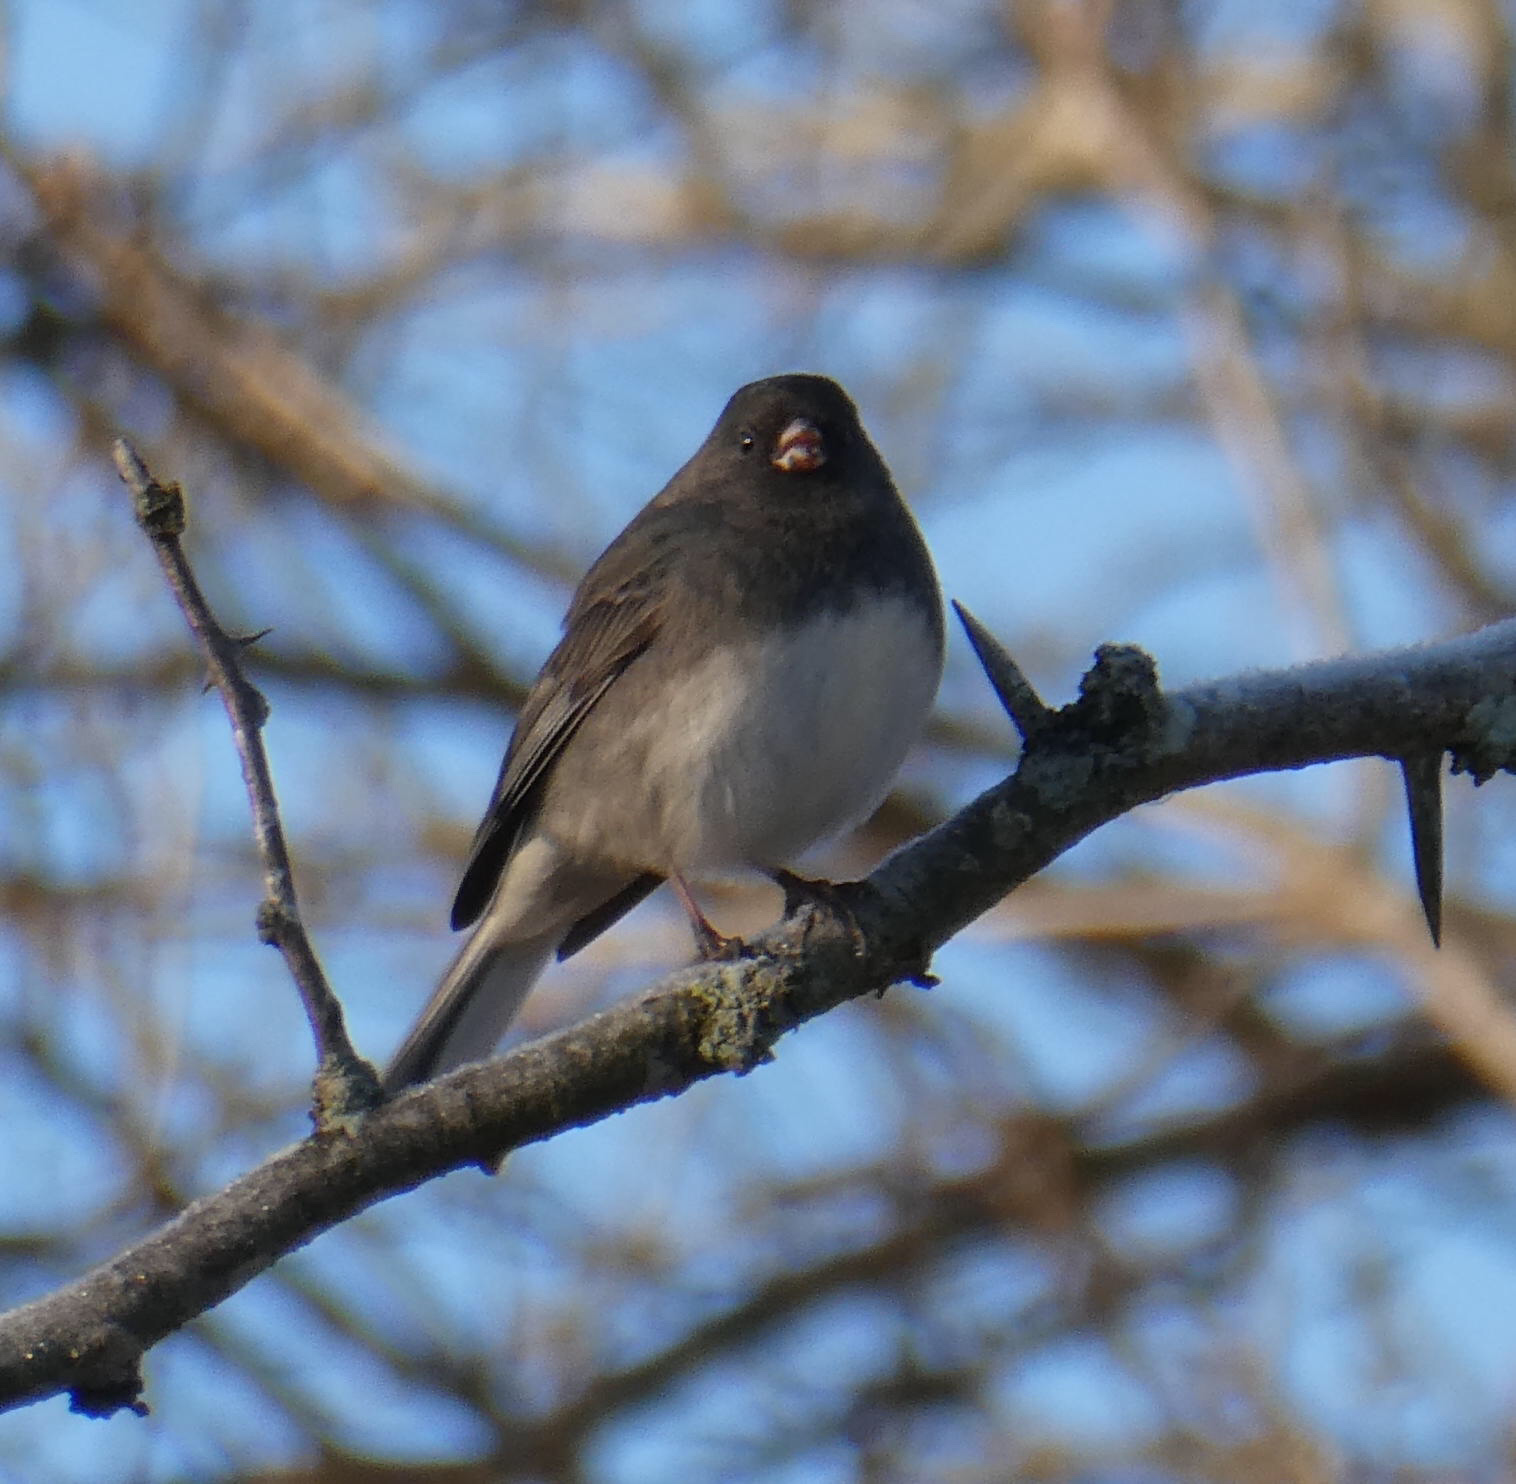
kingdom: Animalia
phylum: Chordata
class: Aves
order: Passeriformes
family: Passerellidae
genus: Junco
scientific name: Junco hyemalis
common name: Dark-eyed junco
